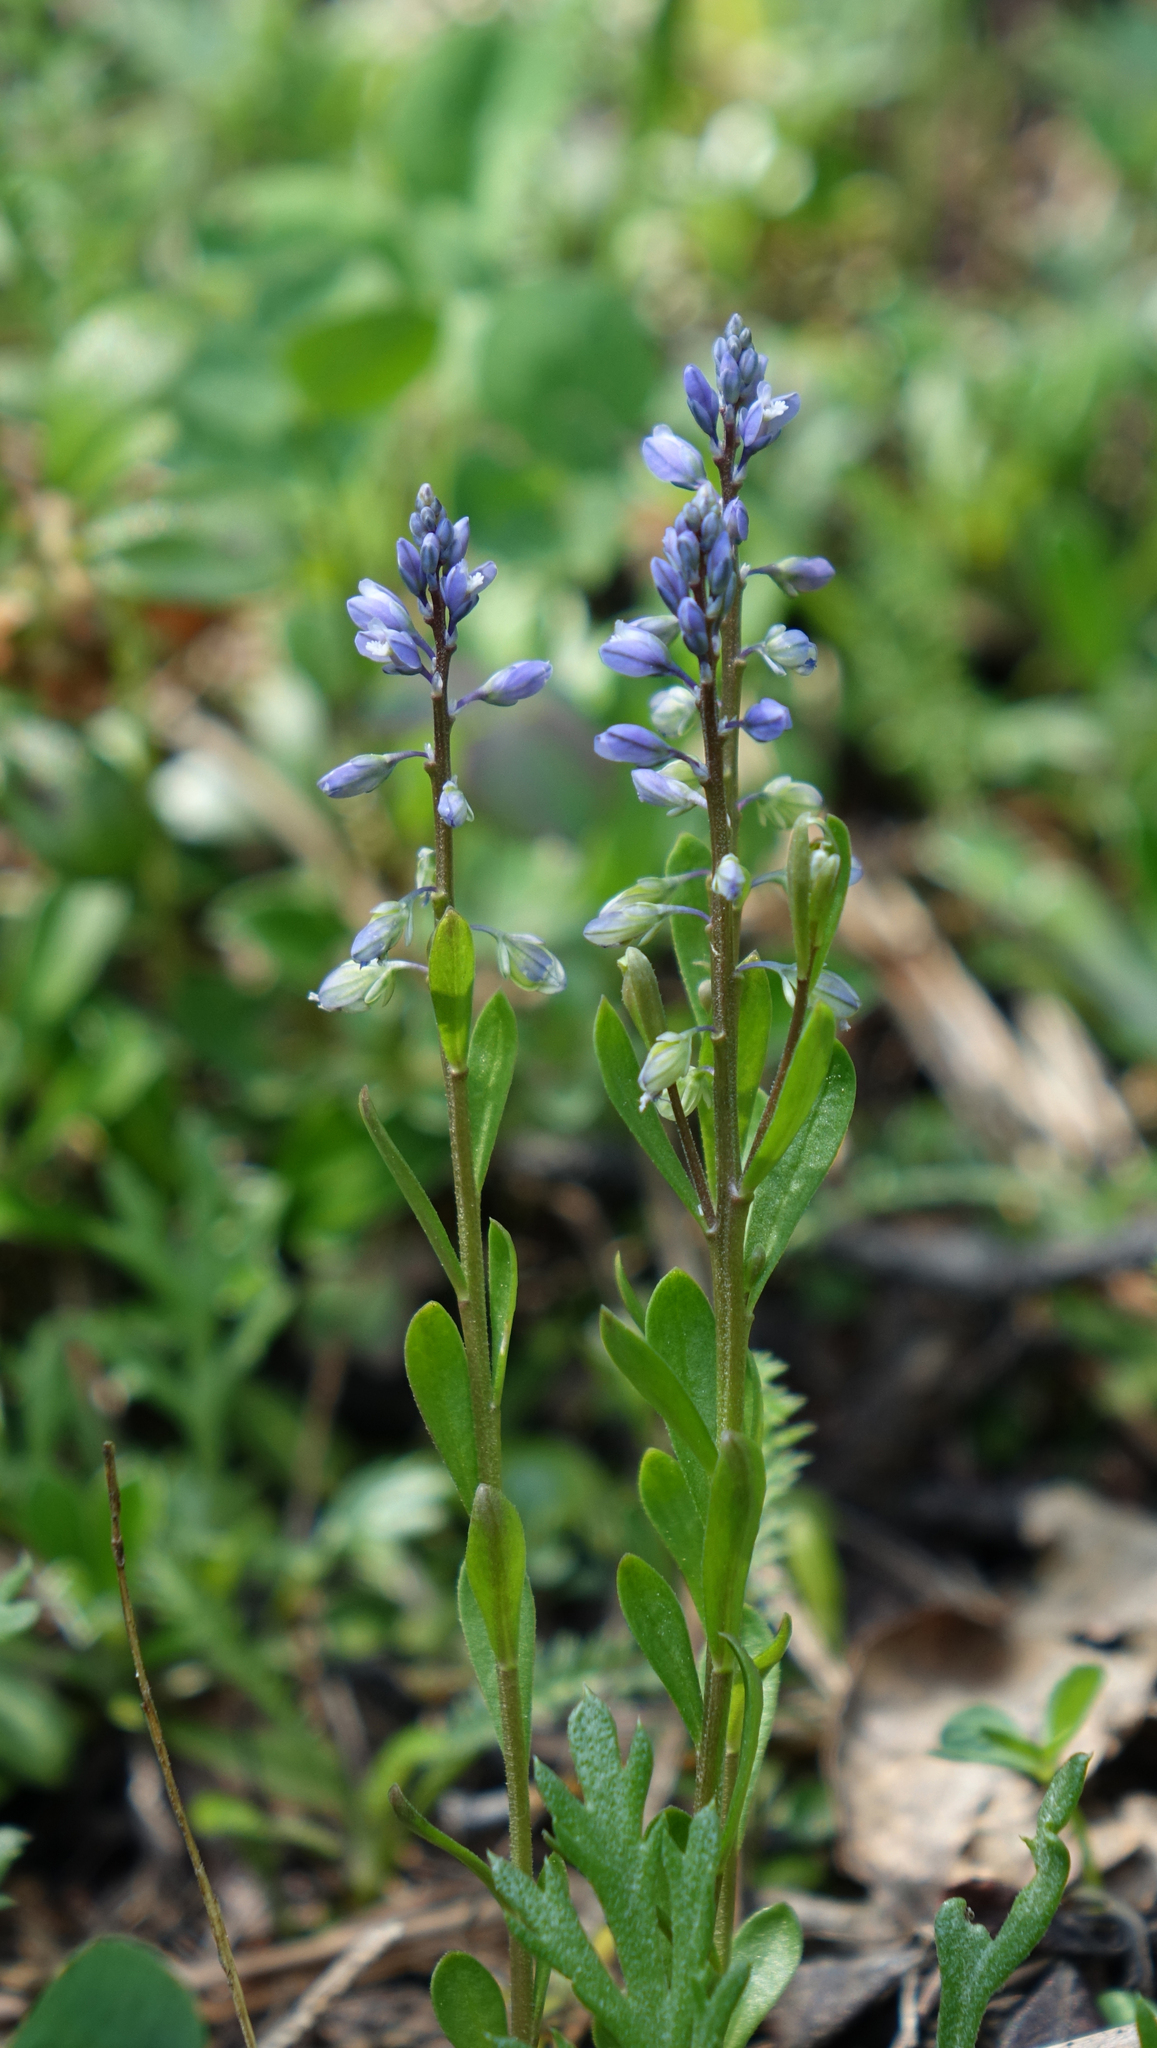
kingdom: Plantae
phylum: Tracheophyta
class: Magnoliopsida
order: Fabales
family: Polygalaceae
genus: Polygala
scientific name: Polygala amarella
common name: Dwarf milkwort
